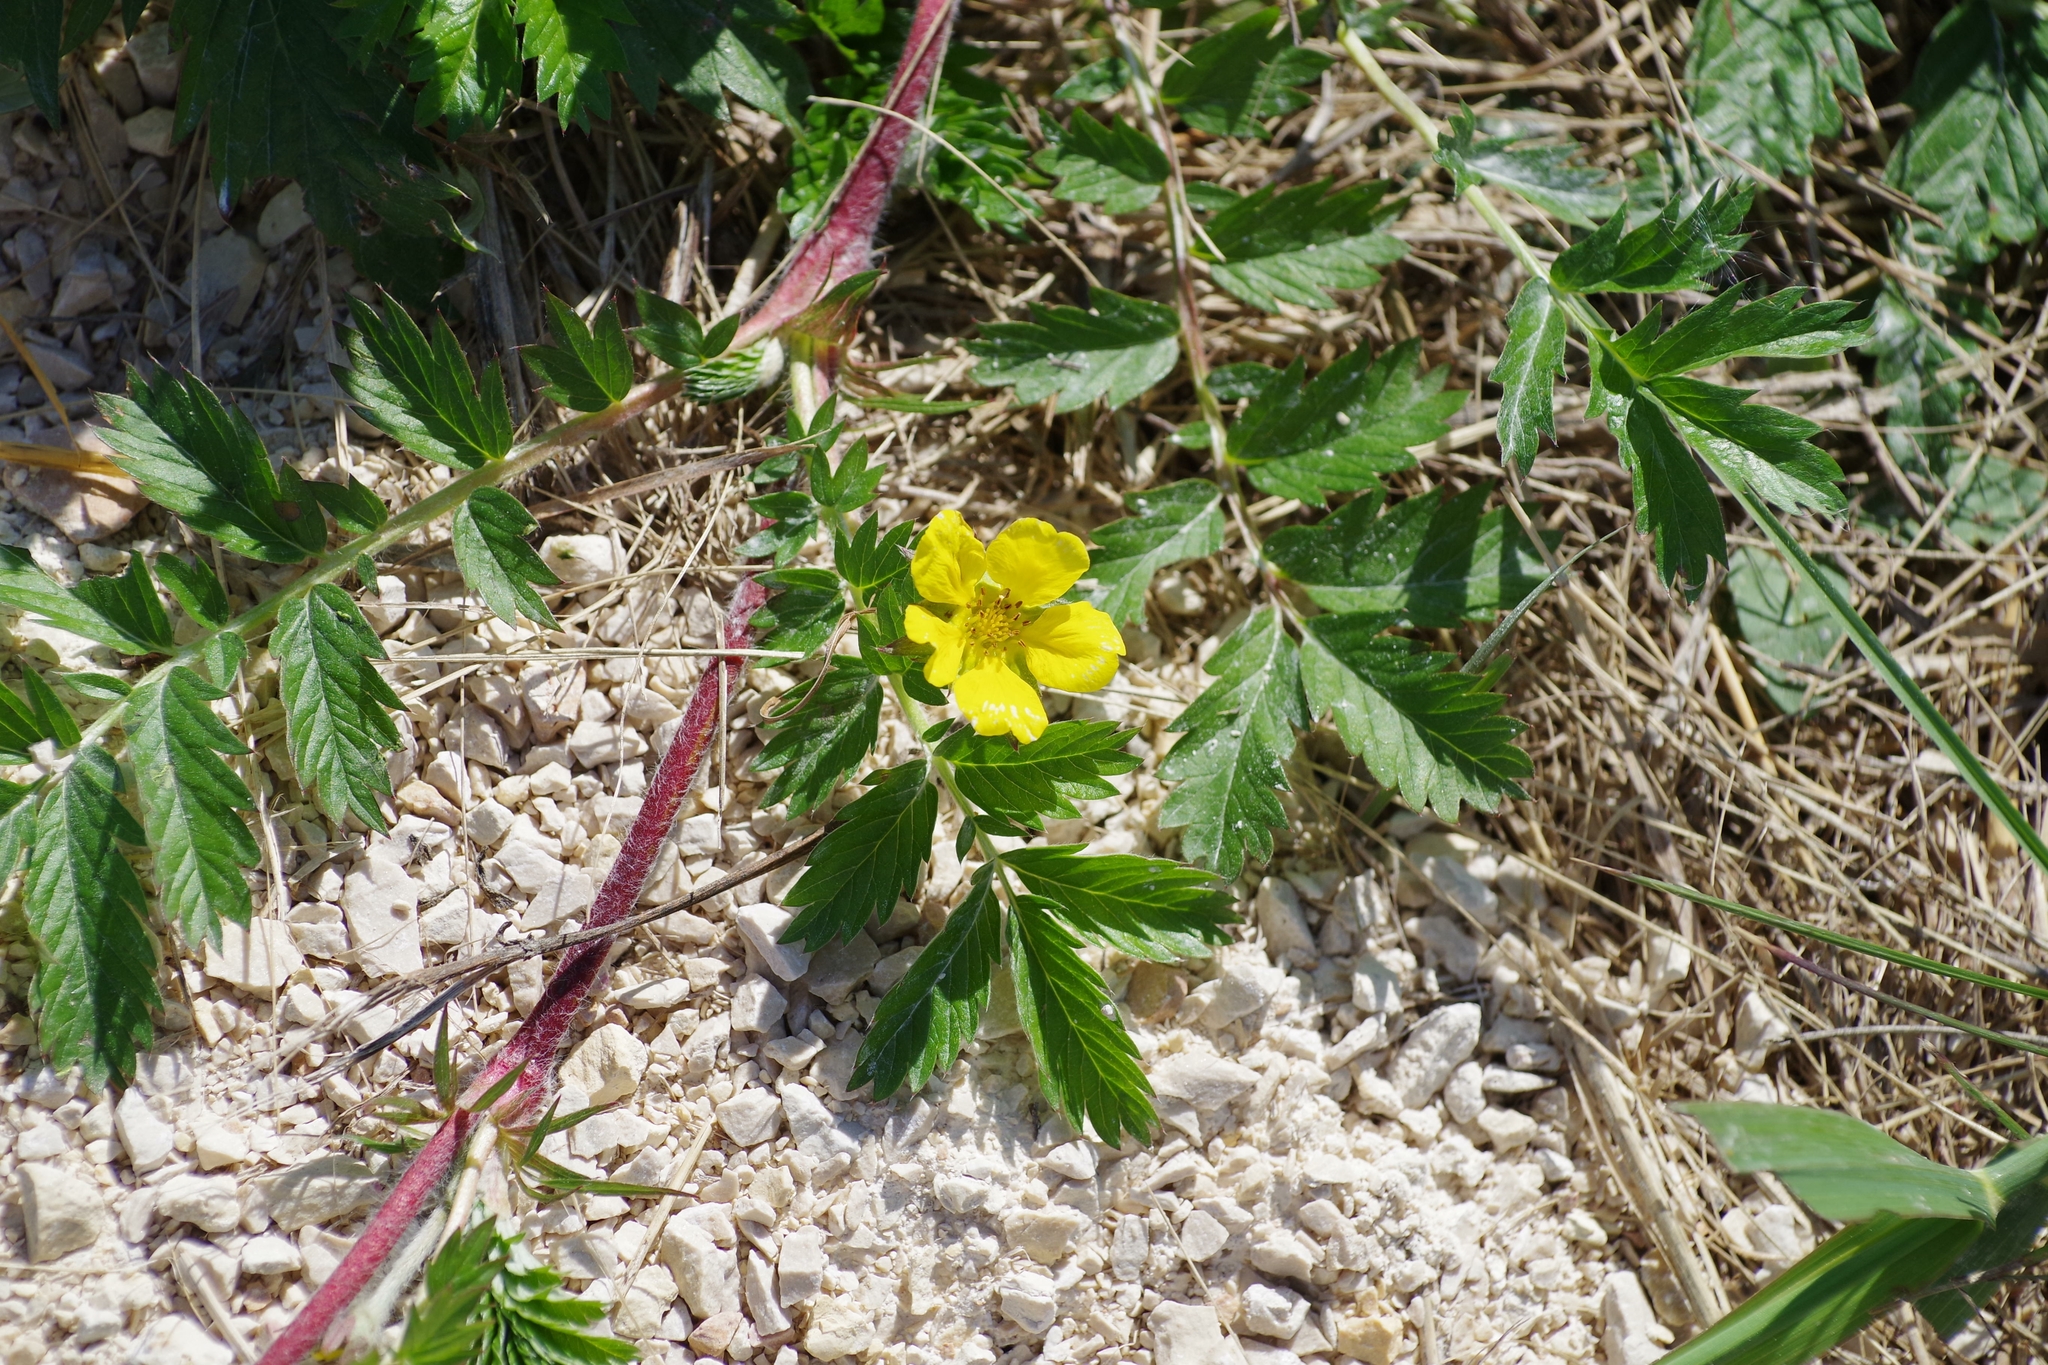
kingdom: Plantae
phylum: Tracheophyta
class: Magnoliopsida
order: Rosales
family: Rosaceae
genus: Argentina
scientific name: Argentina anserina
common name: Common silverweed
